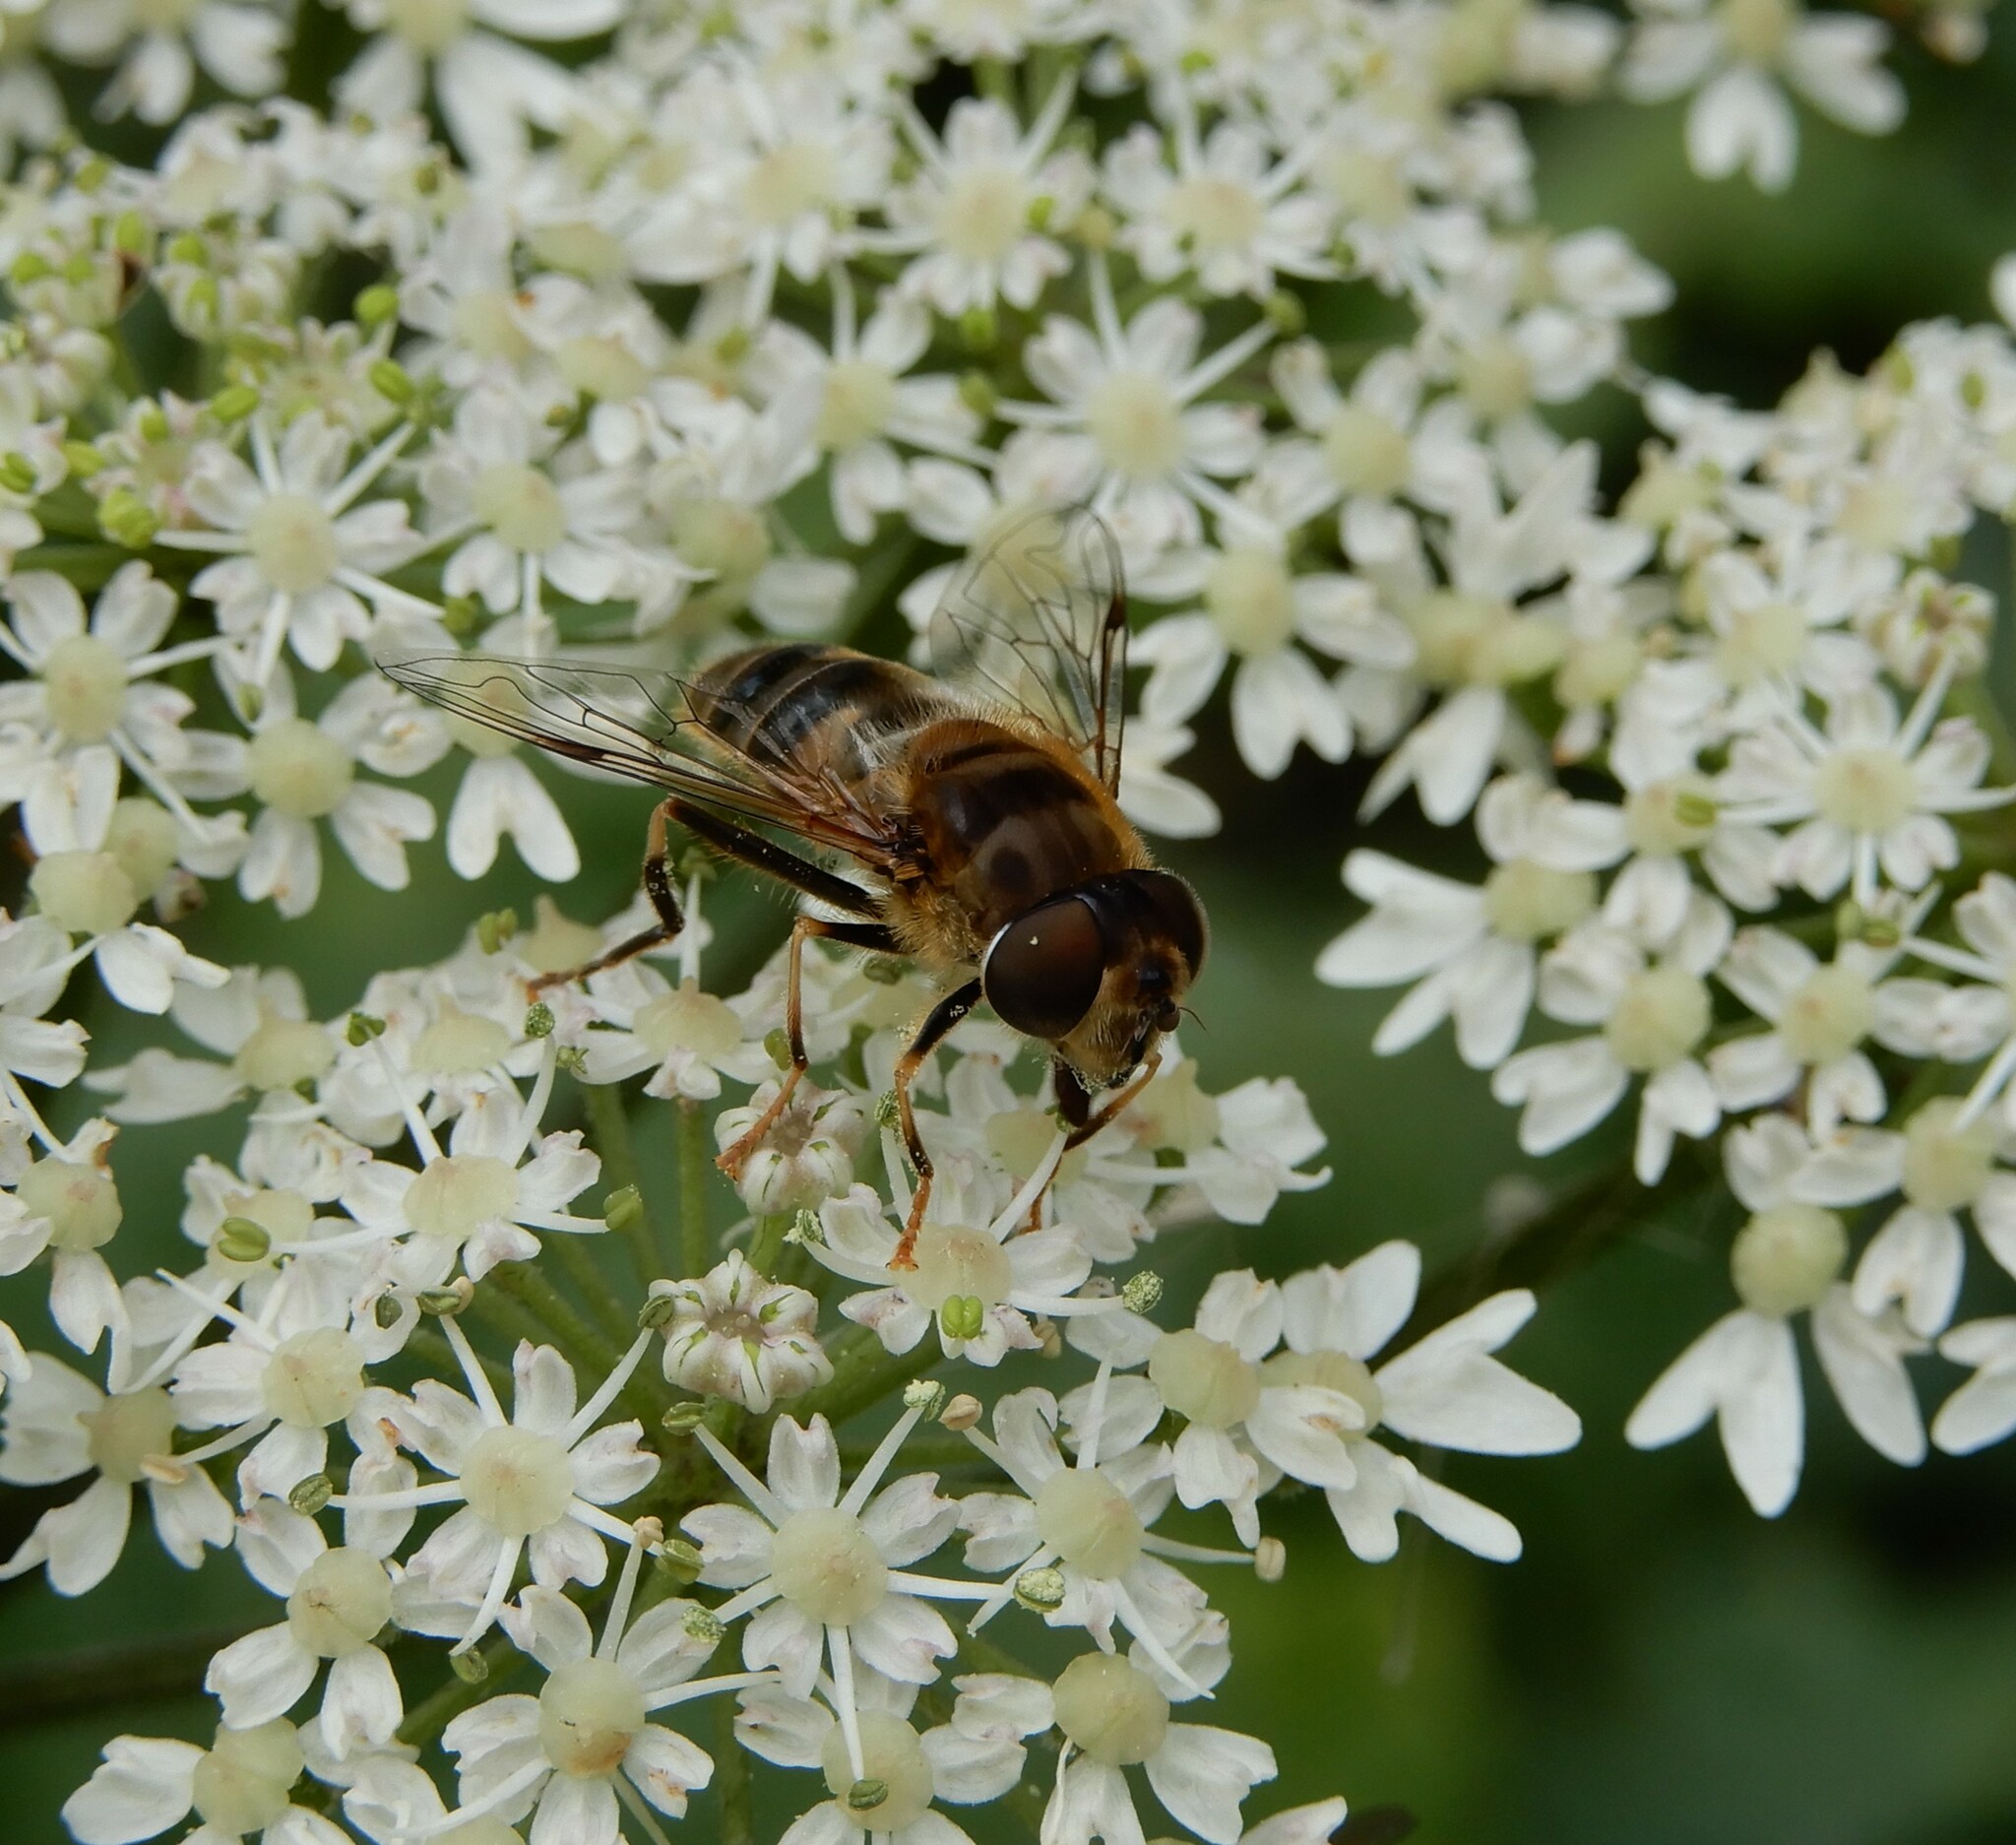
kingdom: Animalia
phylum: Arthropoda
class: Insecta
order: Diptera
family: Syrphidae
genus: Eristalis
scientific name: Eristalis pertinax
